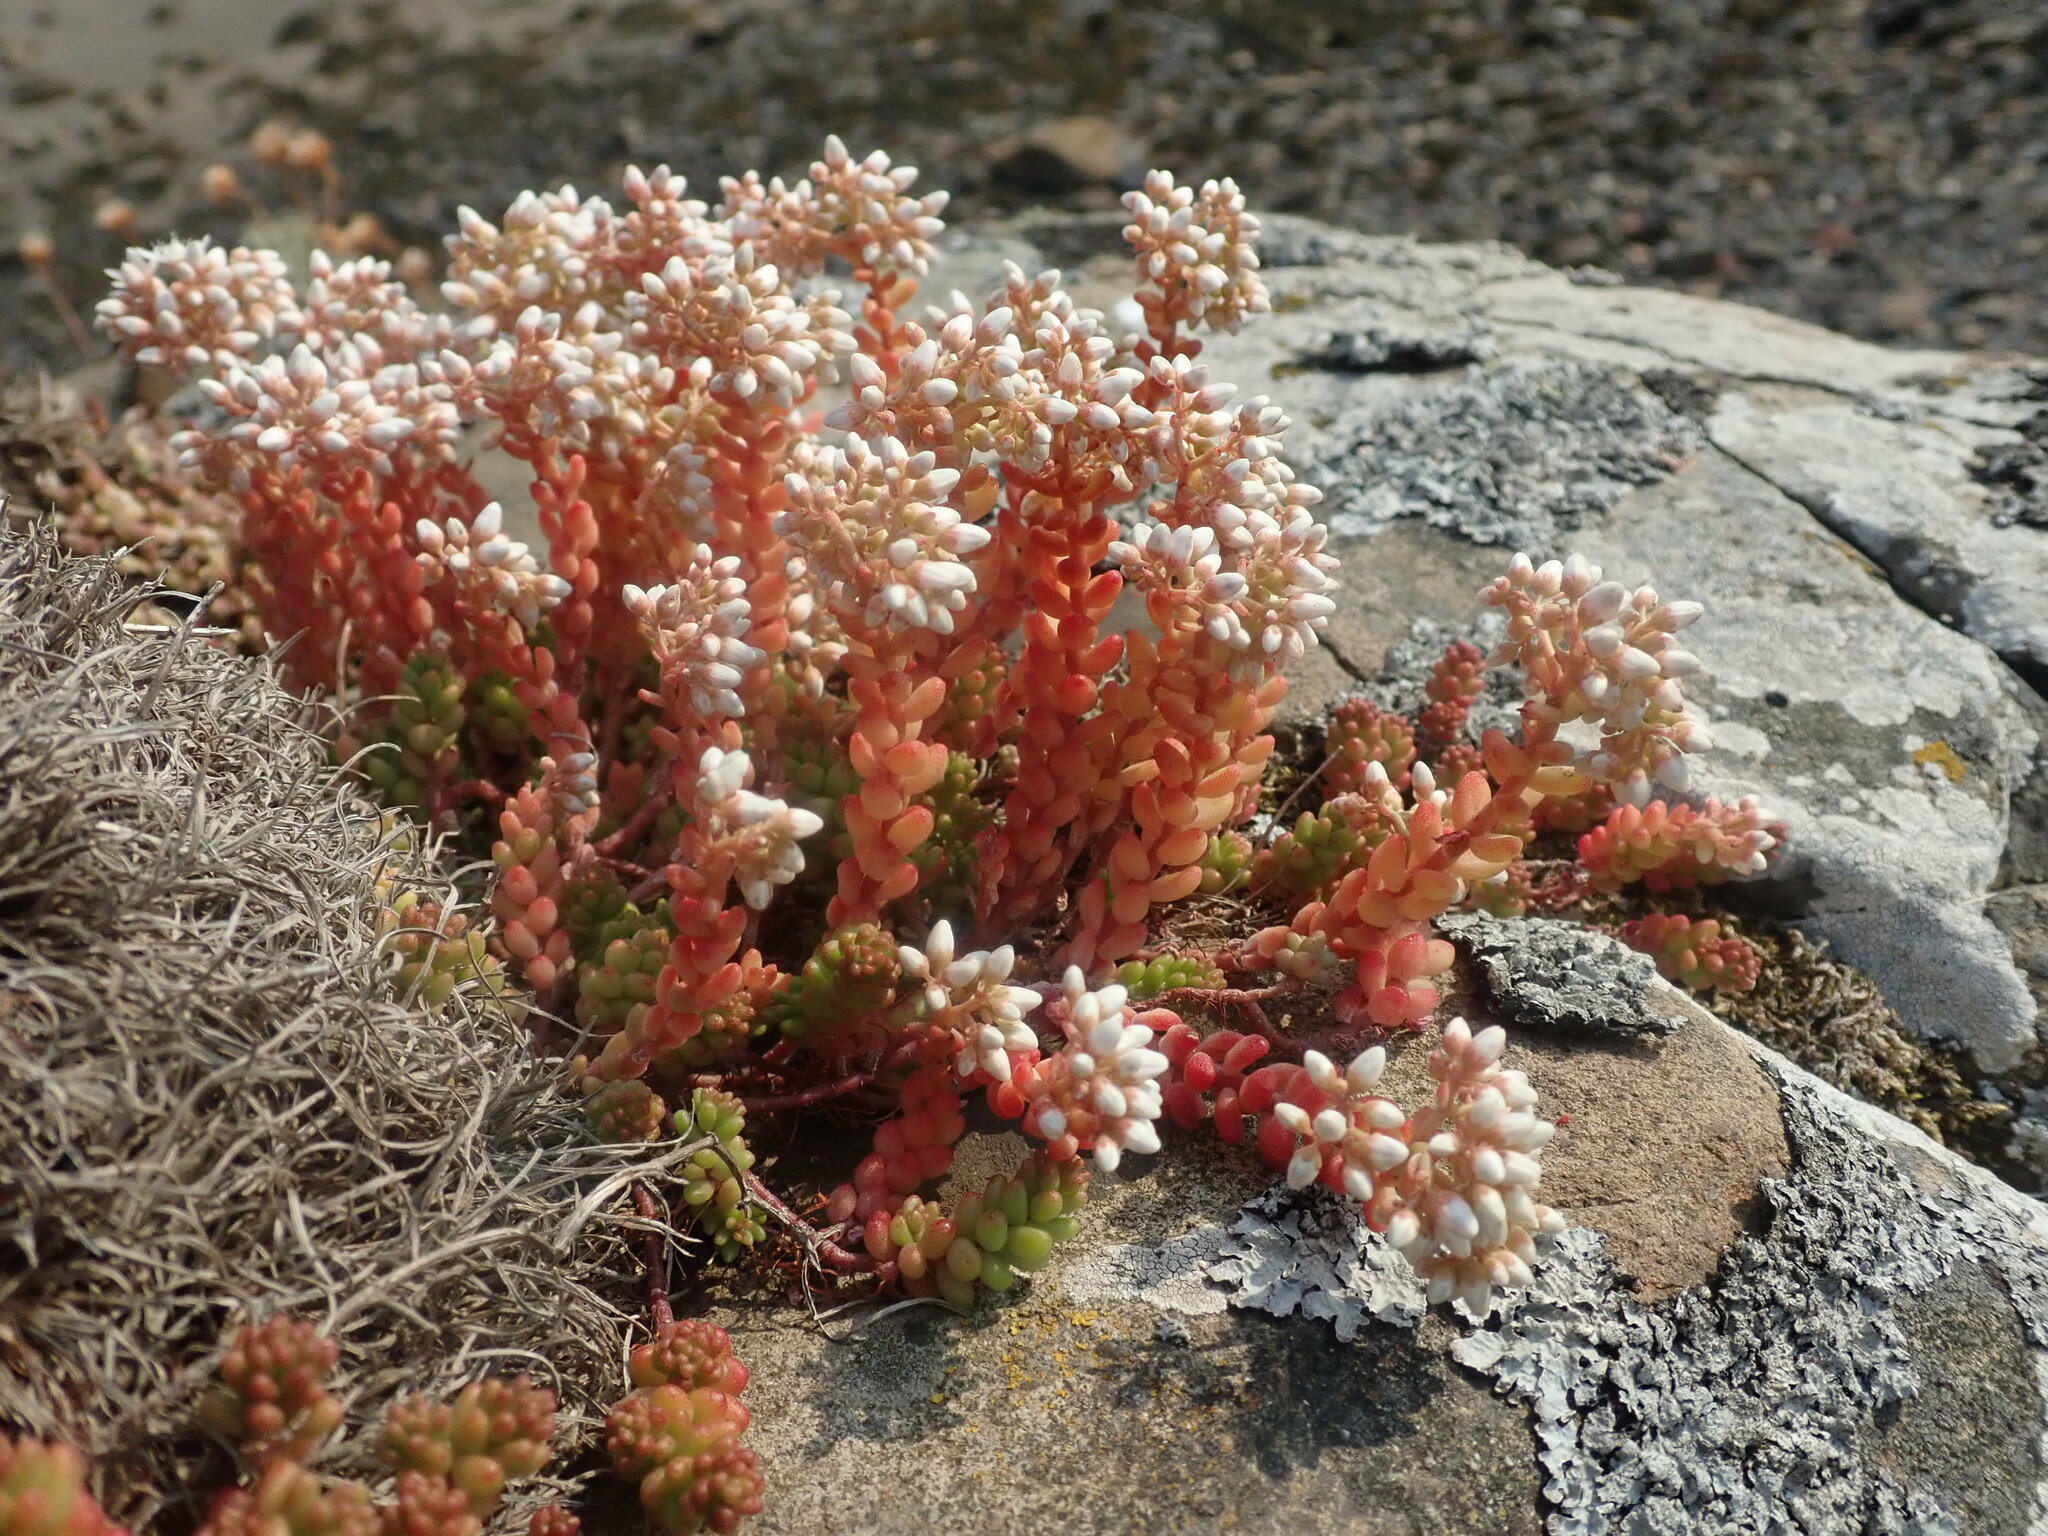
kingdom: Plantae
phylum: Tracheophyta
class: Magnoliopsida
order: Saxifragales
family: Crassulaceae
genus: Sedum
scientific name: Sedum album
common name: White stonecrop
